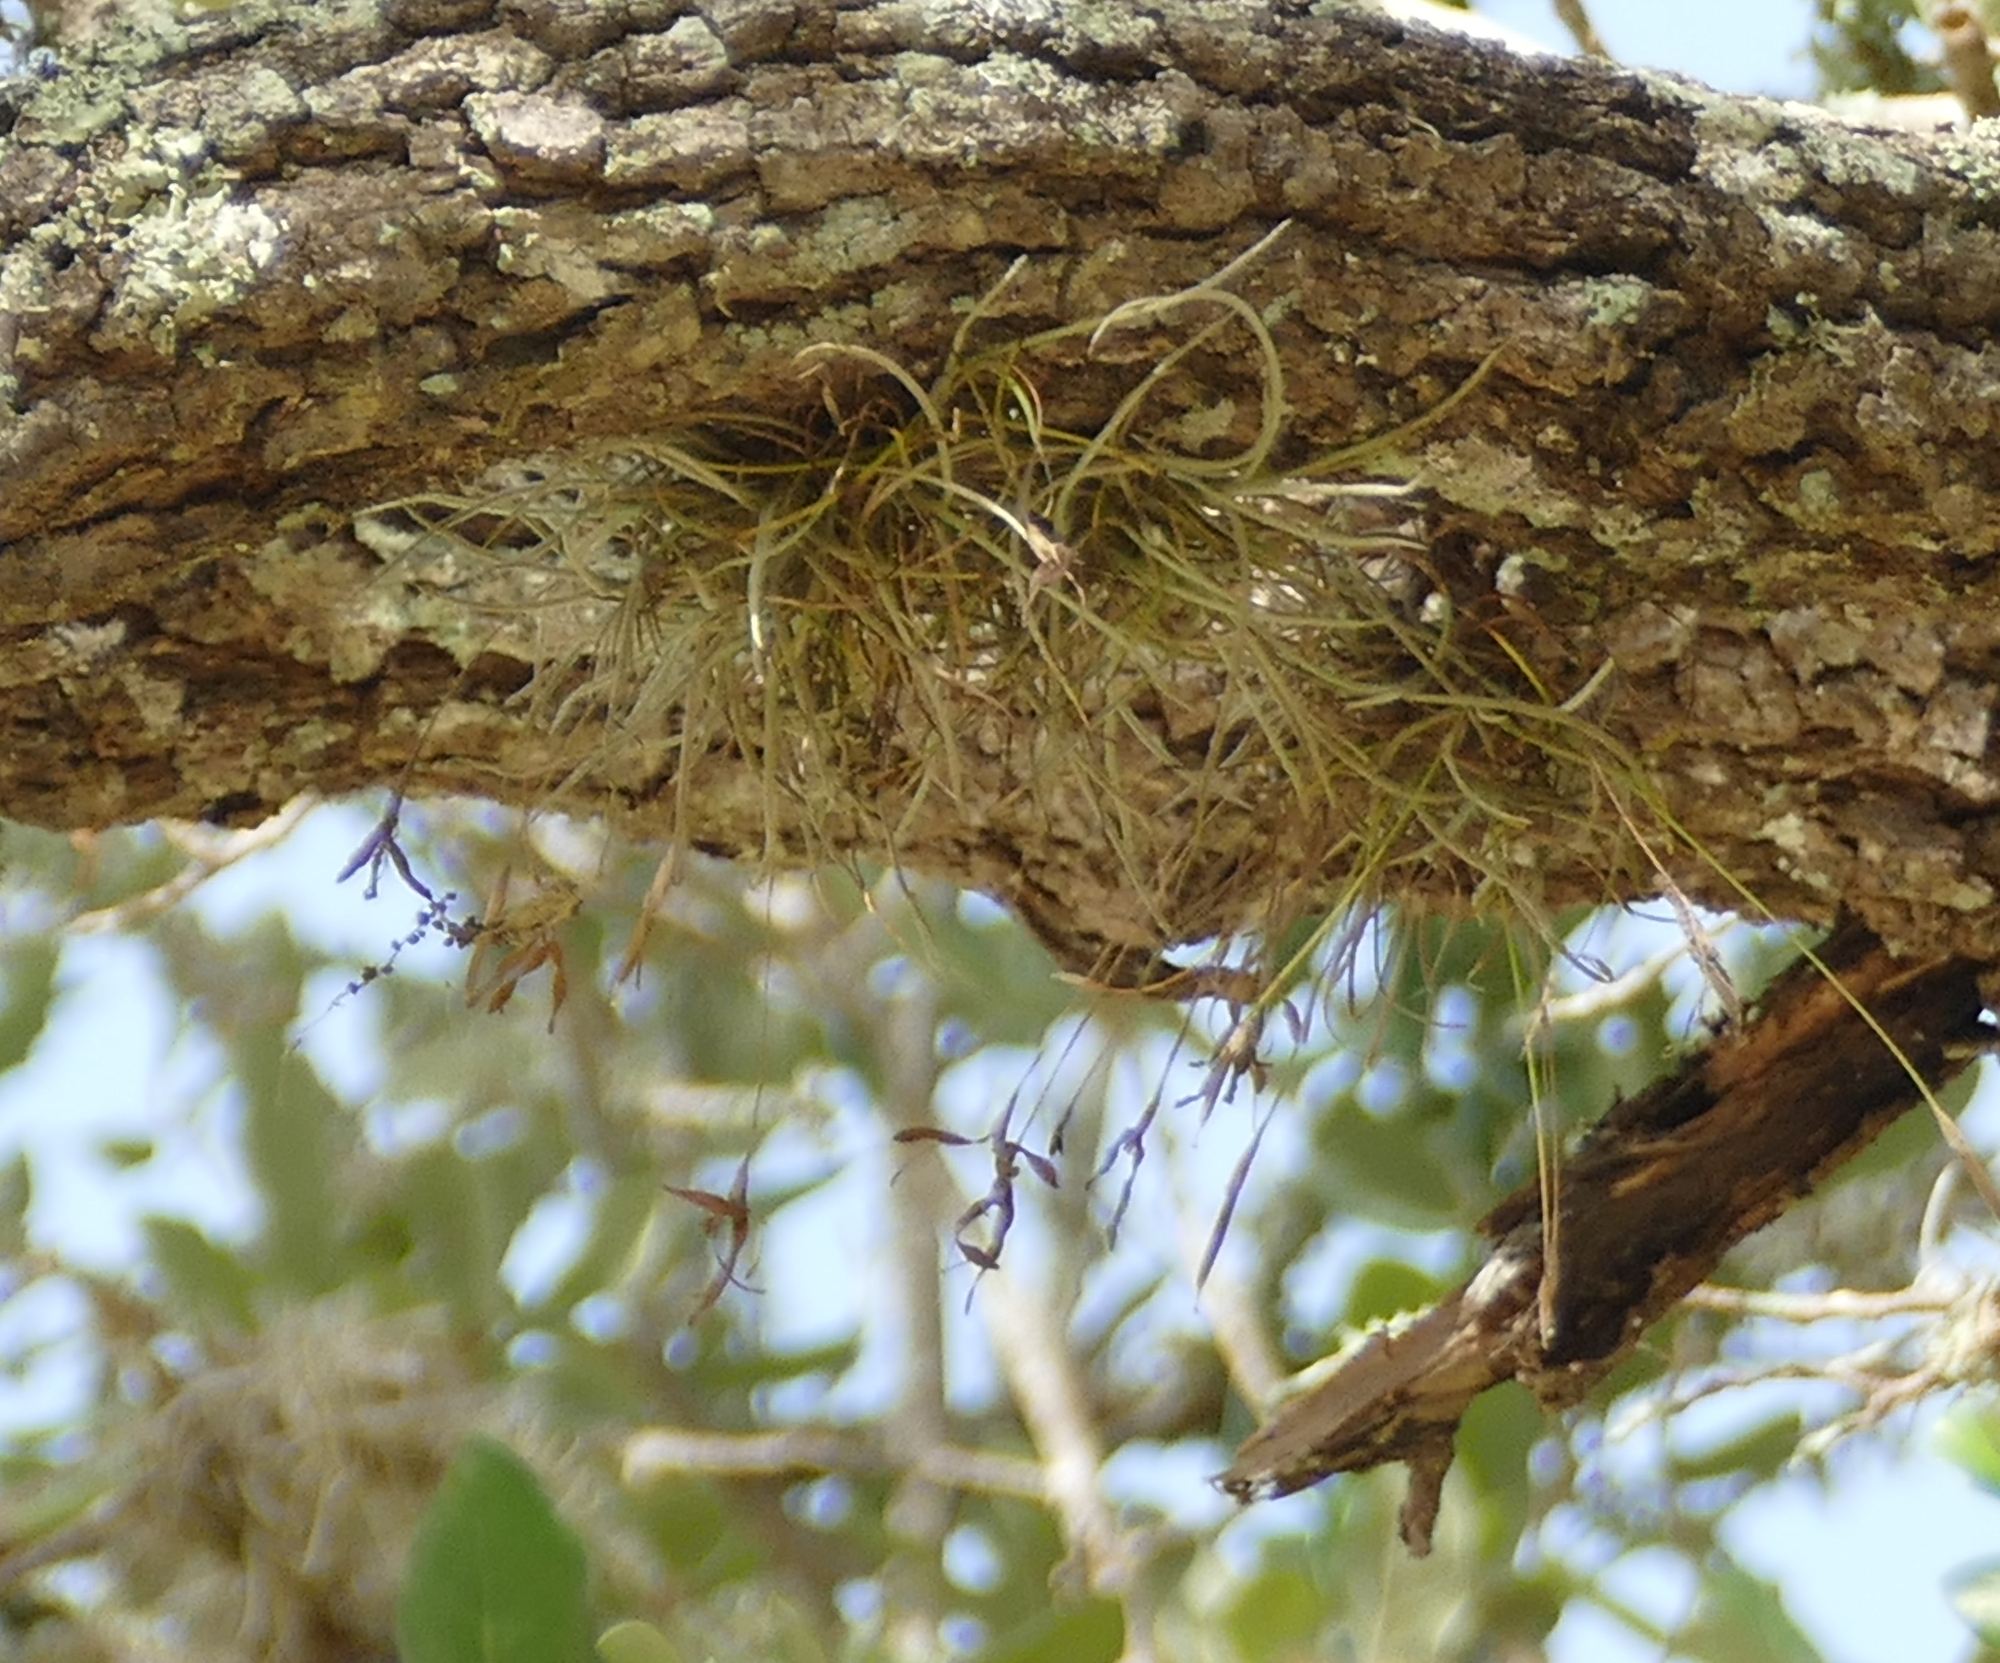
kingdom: Plantae
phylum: Tracheophyta
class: Liliopsida
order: Poales
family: Bromeliaceae
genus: Tillandsia
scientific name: Tillandsia recurvata
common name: Small ballmoss
